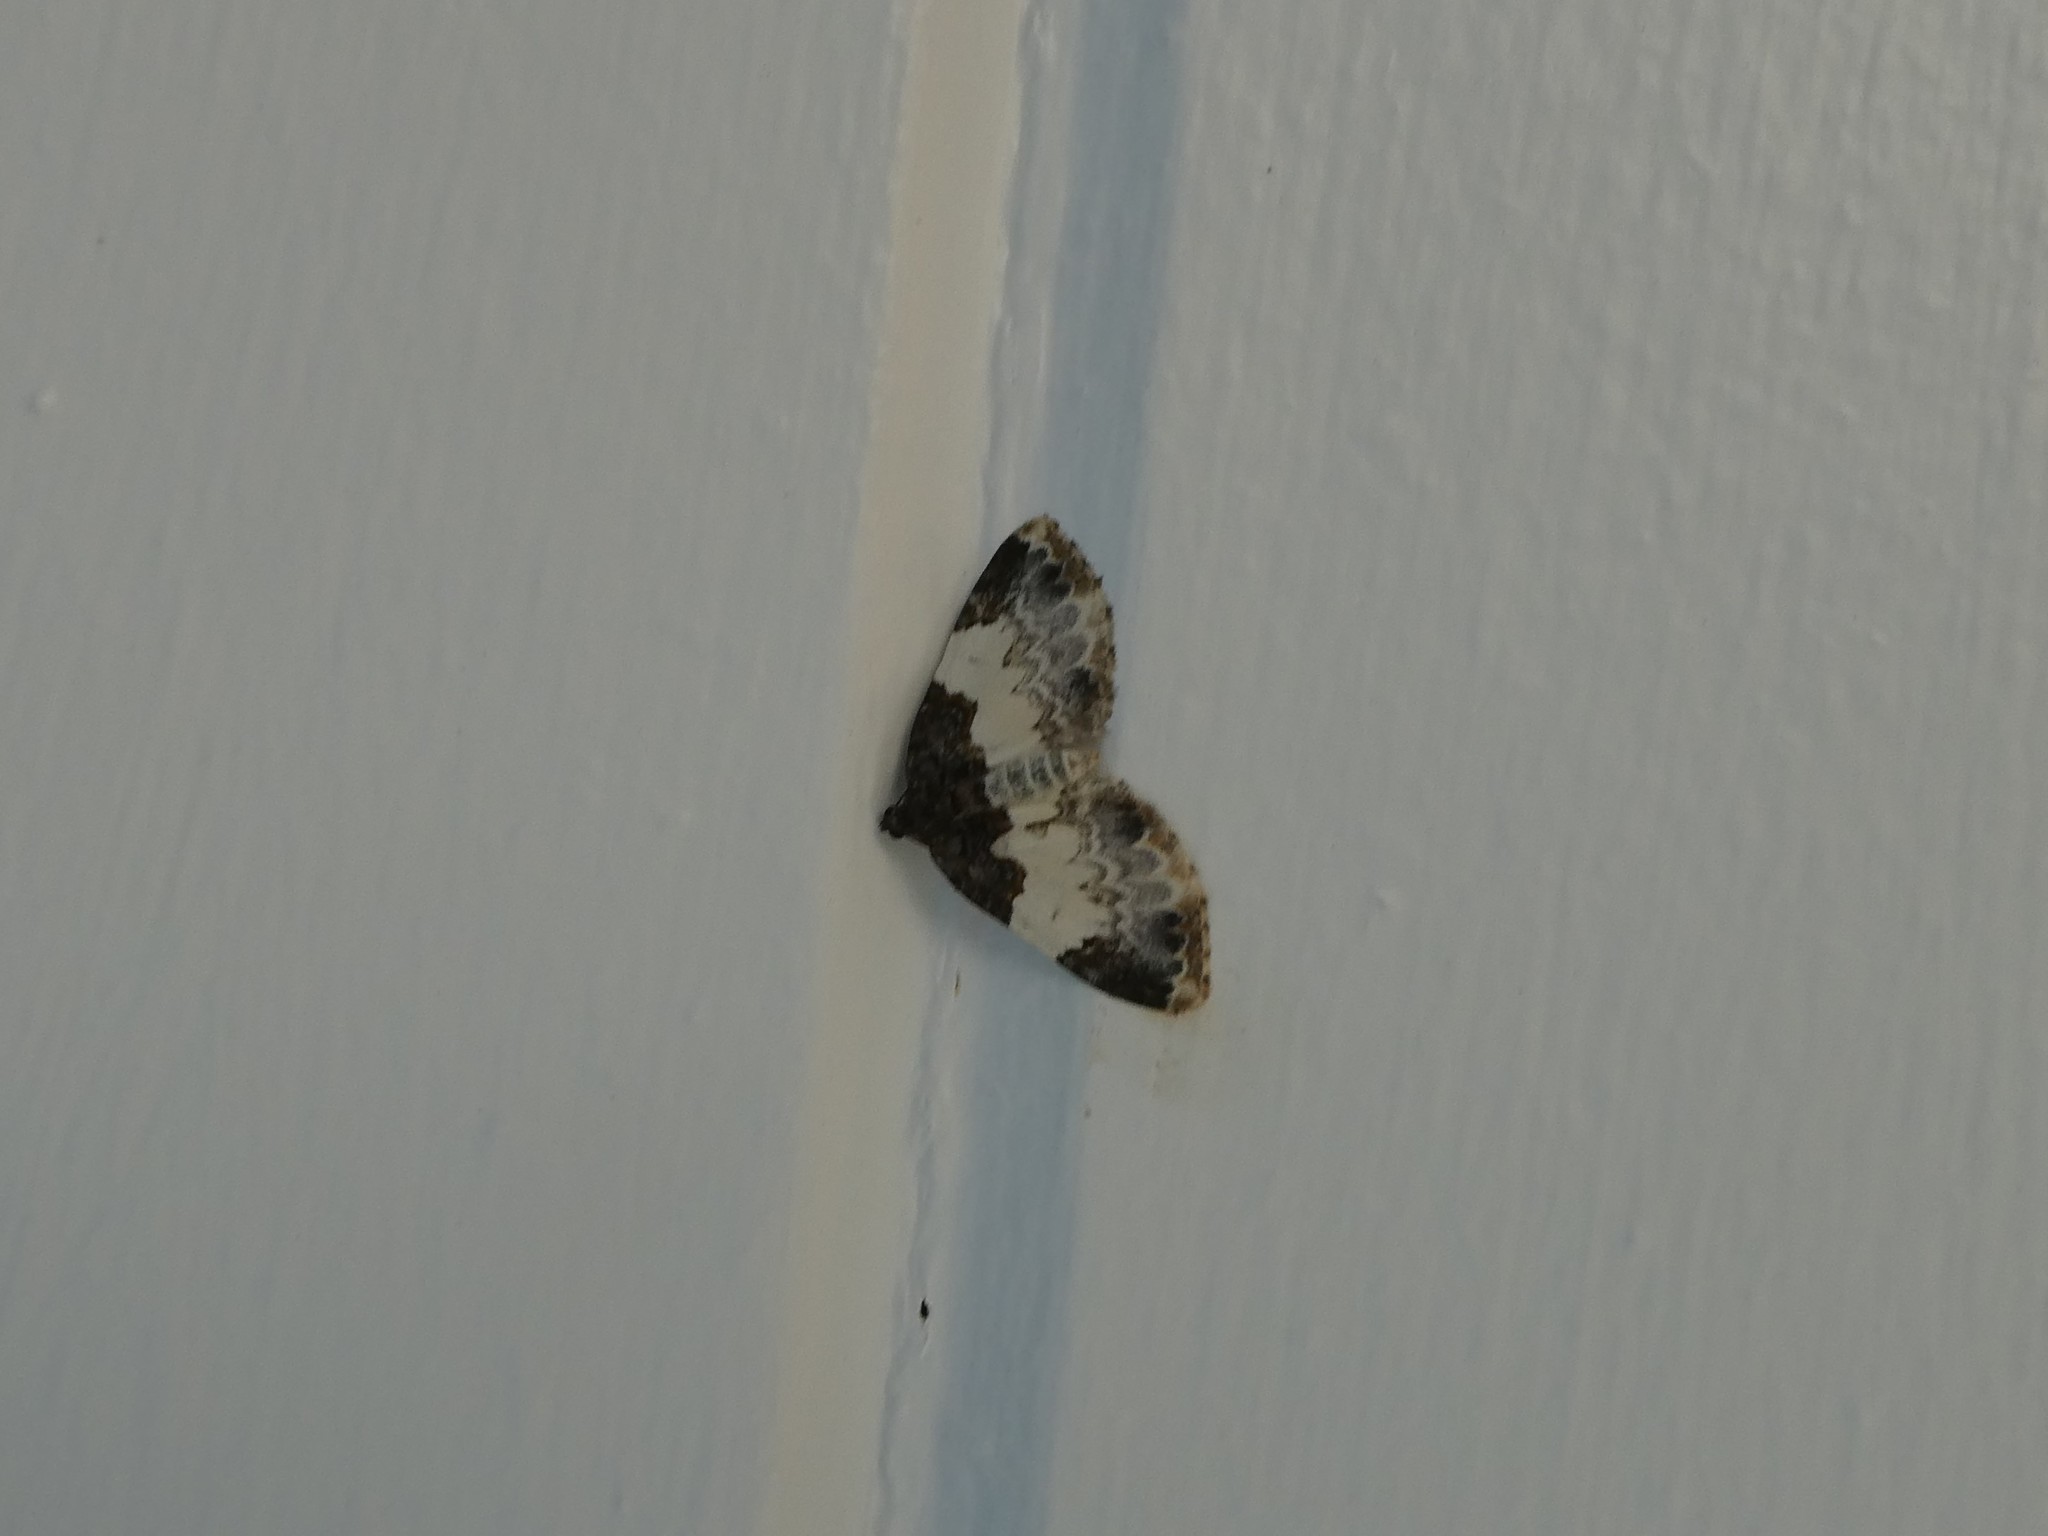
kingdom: Animalia
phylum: Arthropoda
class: Insecta
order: Lepidoptera
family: Geometridae
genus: Mesoleuca
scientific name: Mesoleuca ruficillata
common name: White-ribboned carpet moth
